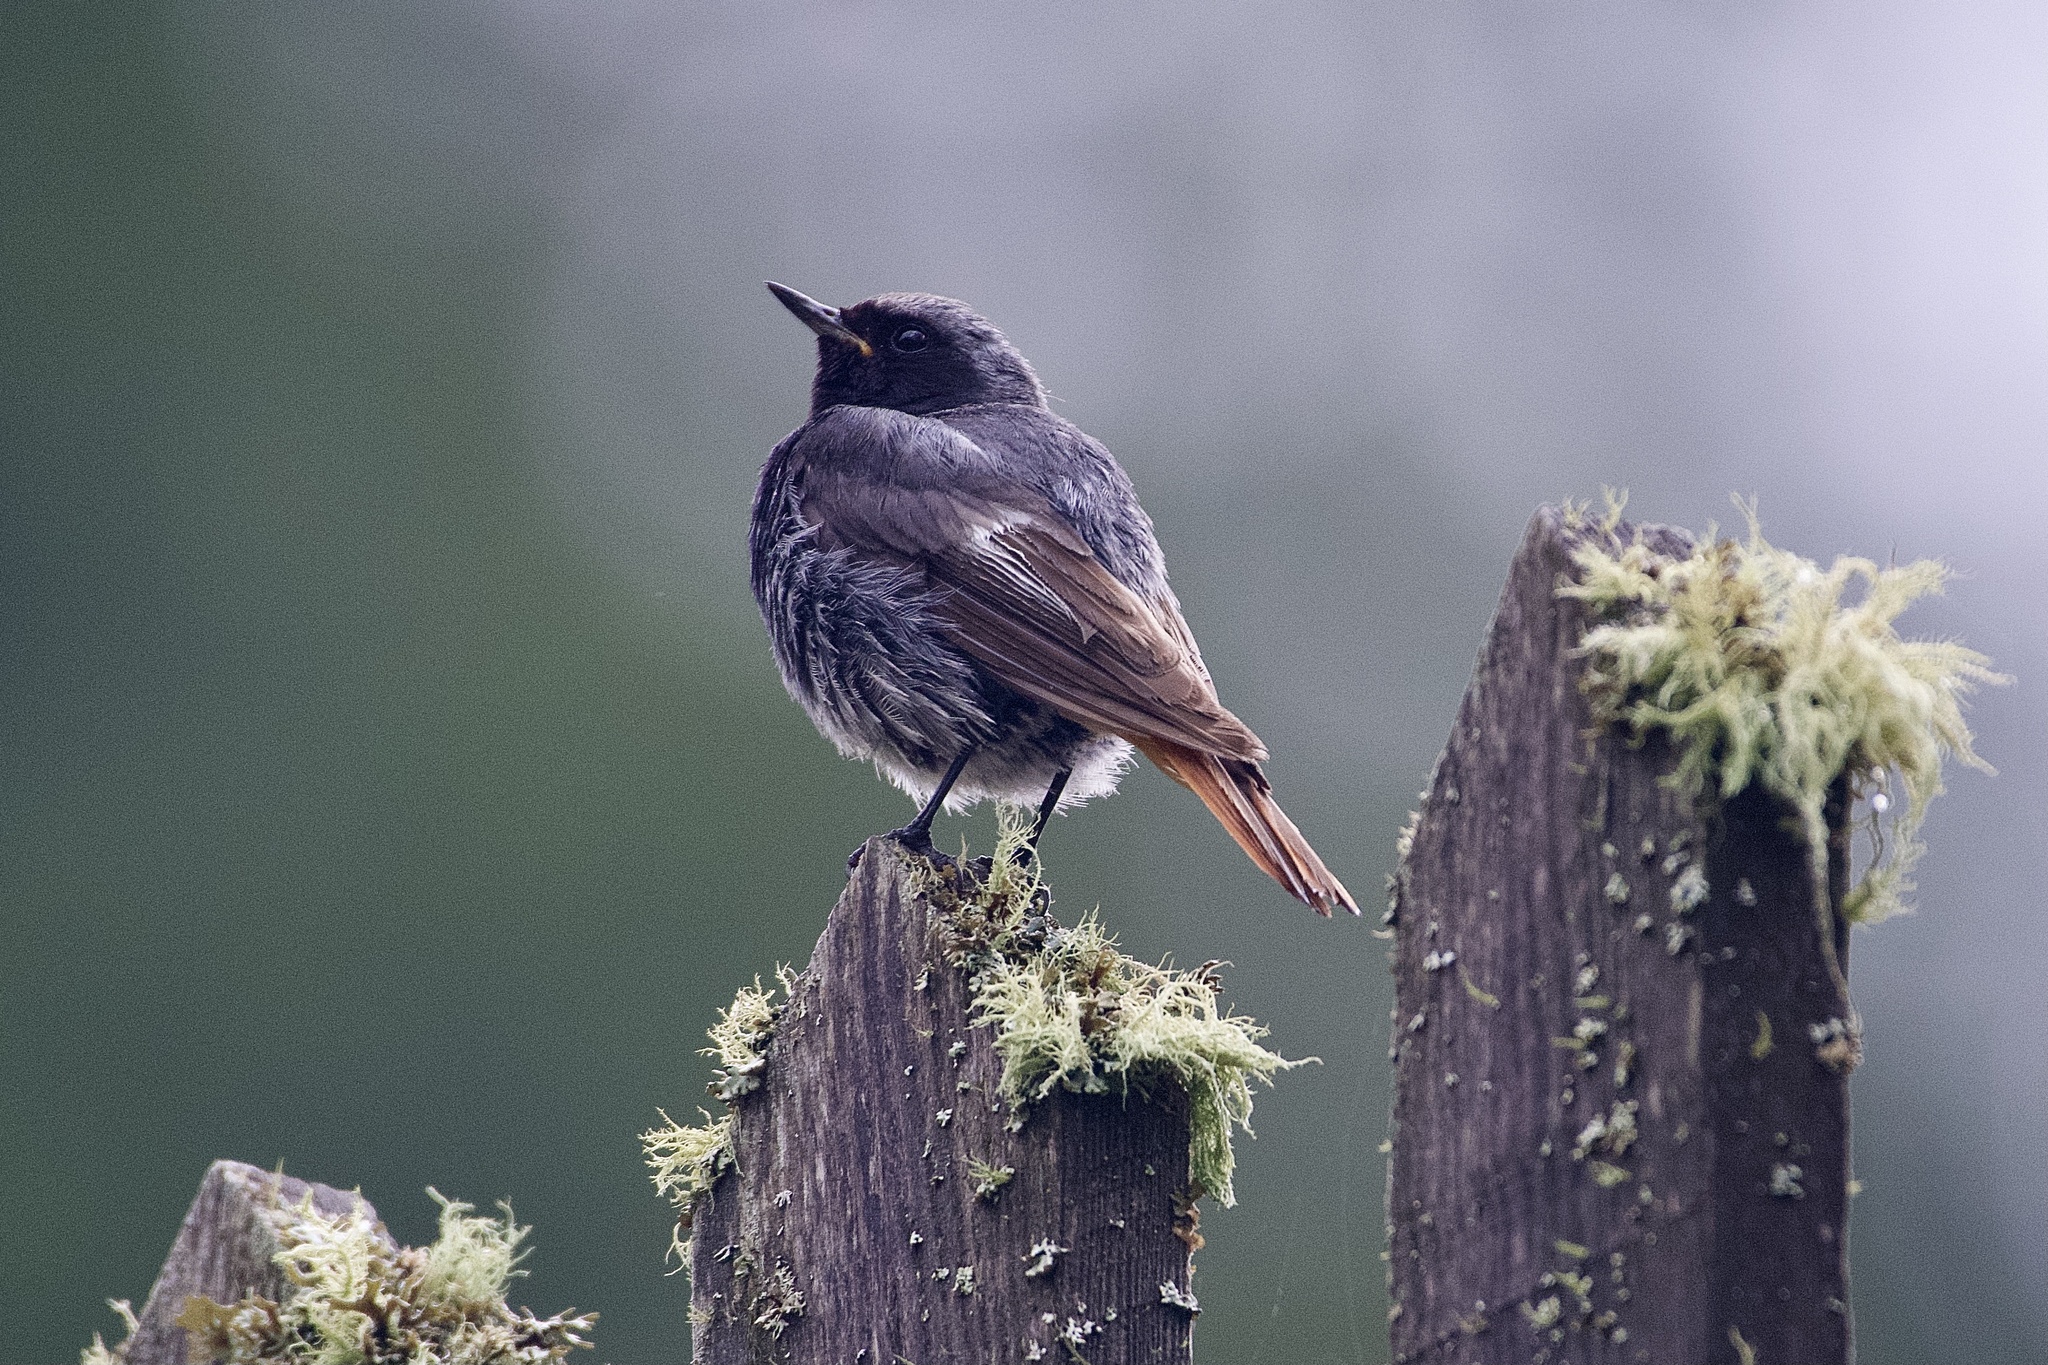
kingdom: Animalia
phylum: Chordata
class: Aves
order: Passeriformes
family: Muscicapidae
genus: Phoenicurus
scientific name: Phoenicurus ochruros
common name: Black redstart
